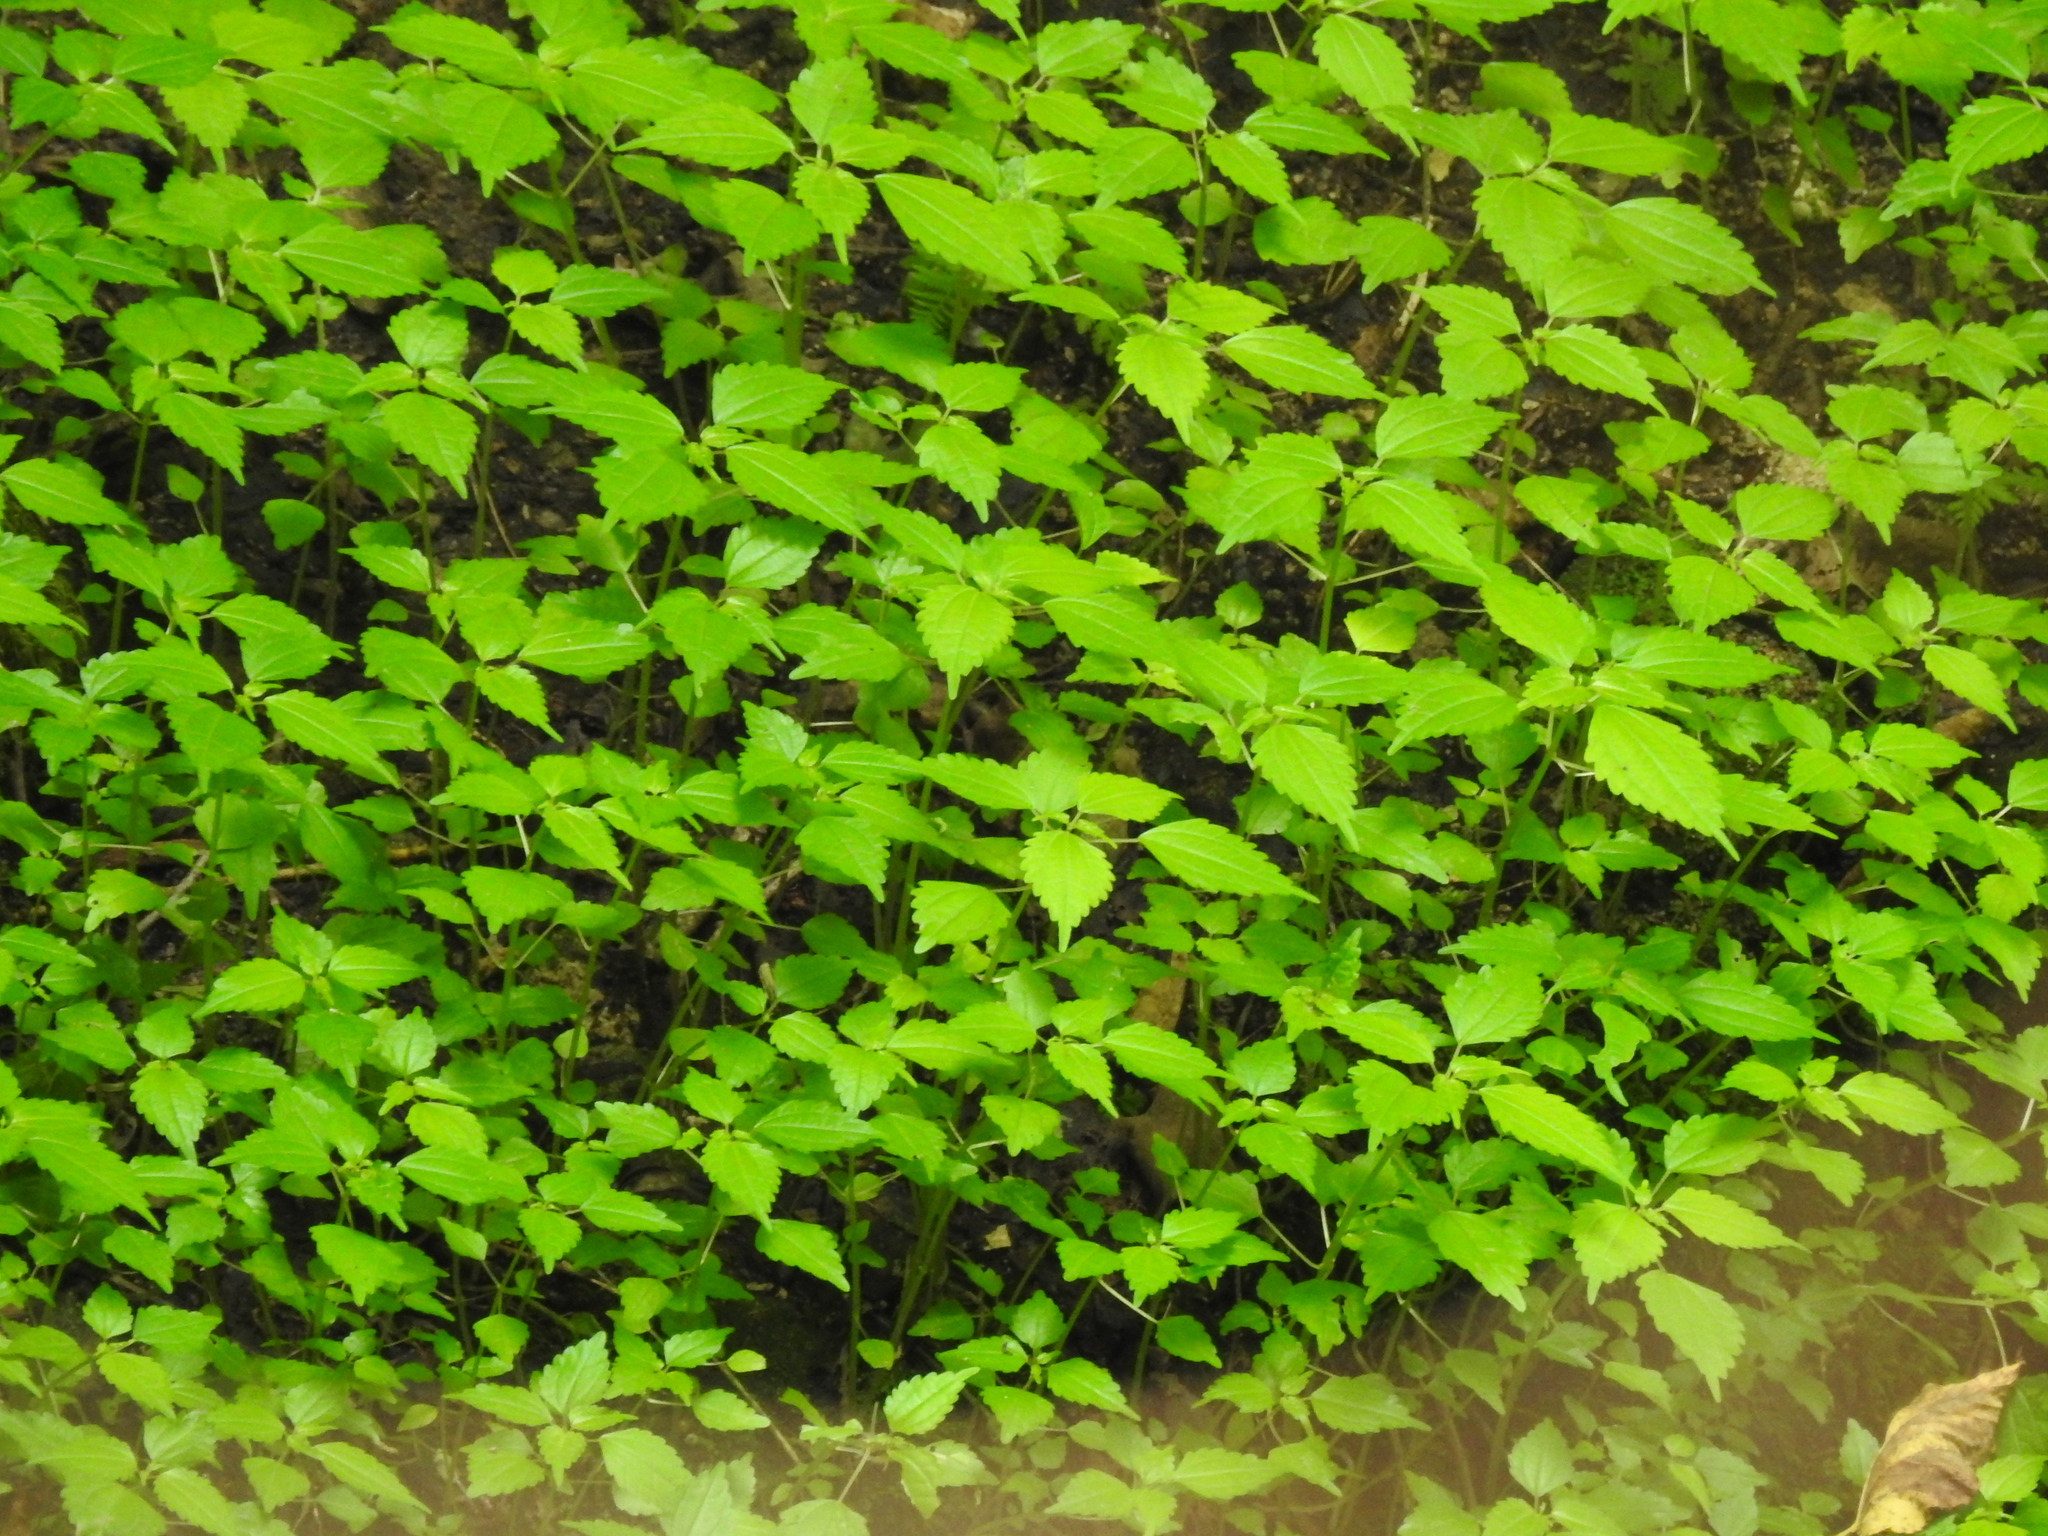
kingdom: Plantae
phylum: Tracheophyta
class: Magnoliopsida
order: Rosales
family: Urticaceae
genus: Pilea
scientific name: Pilea pumila
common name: Clearweed
